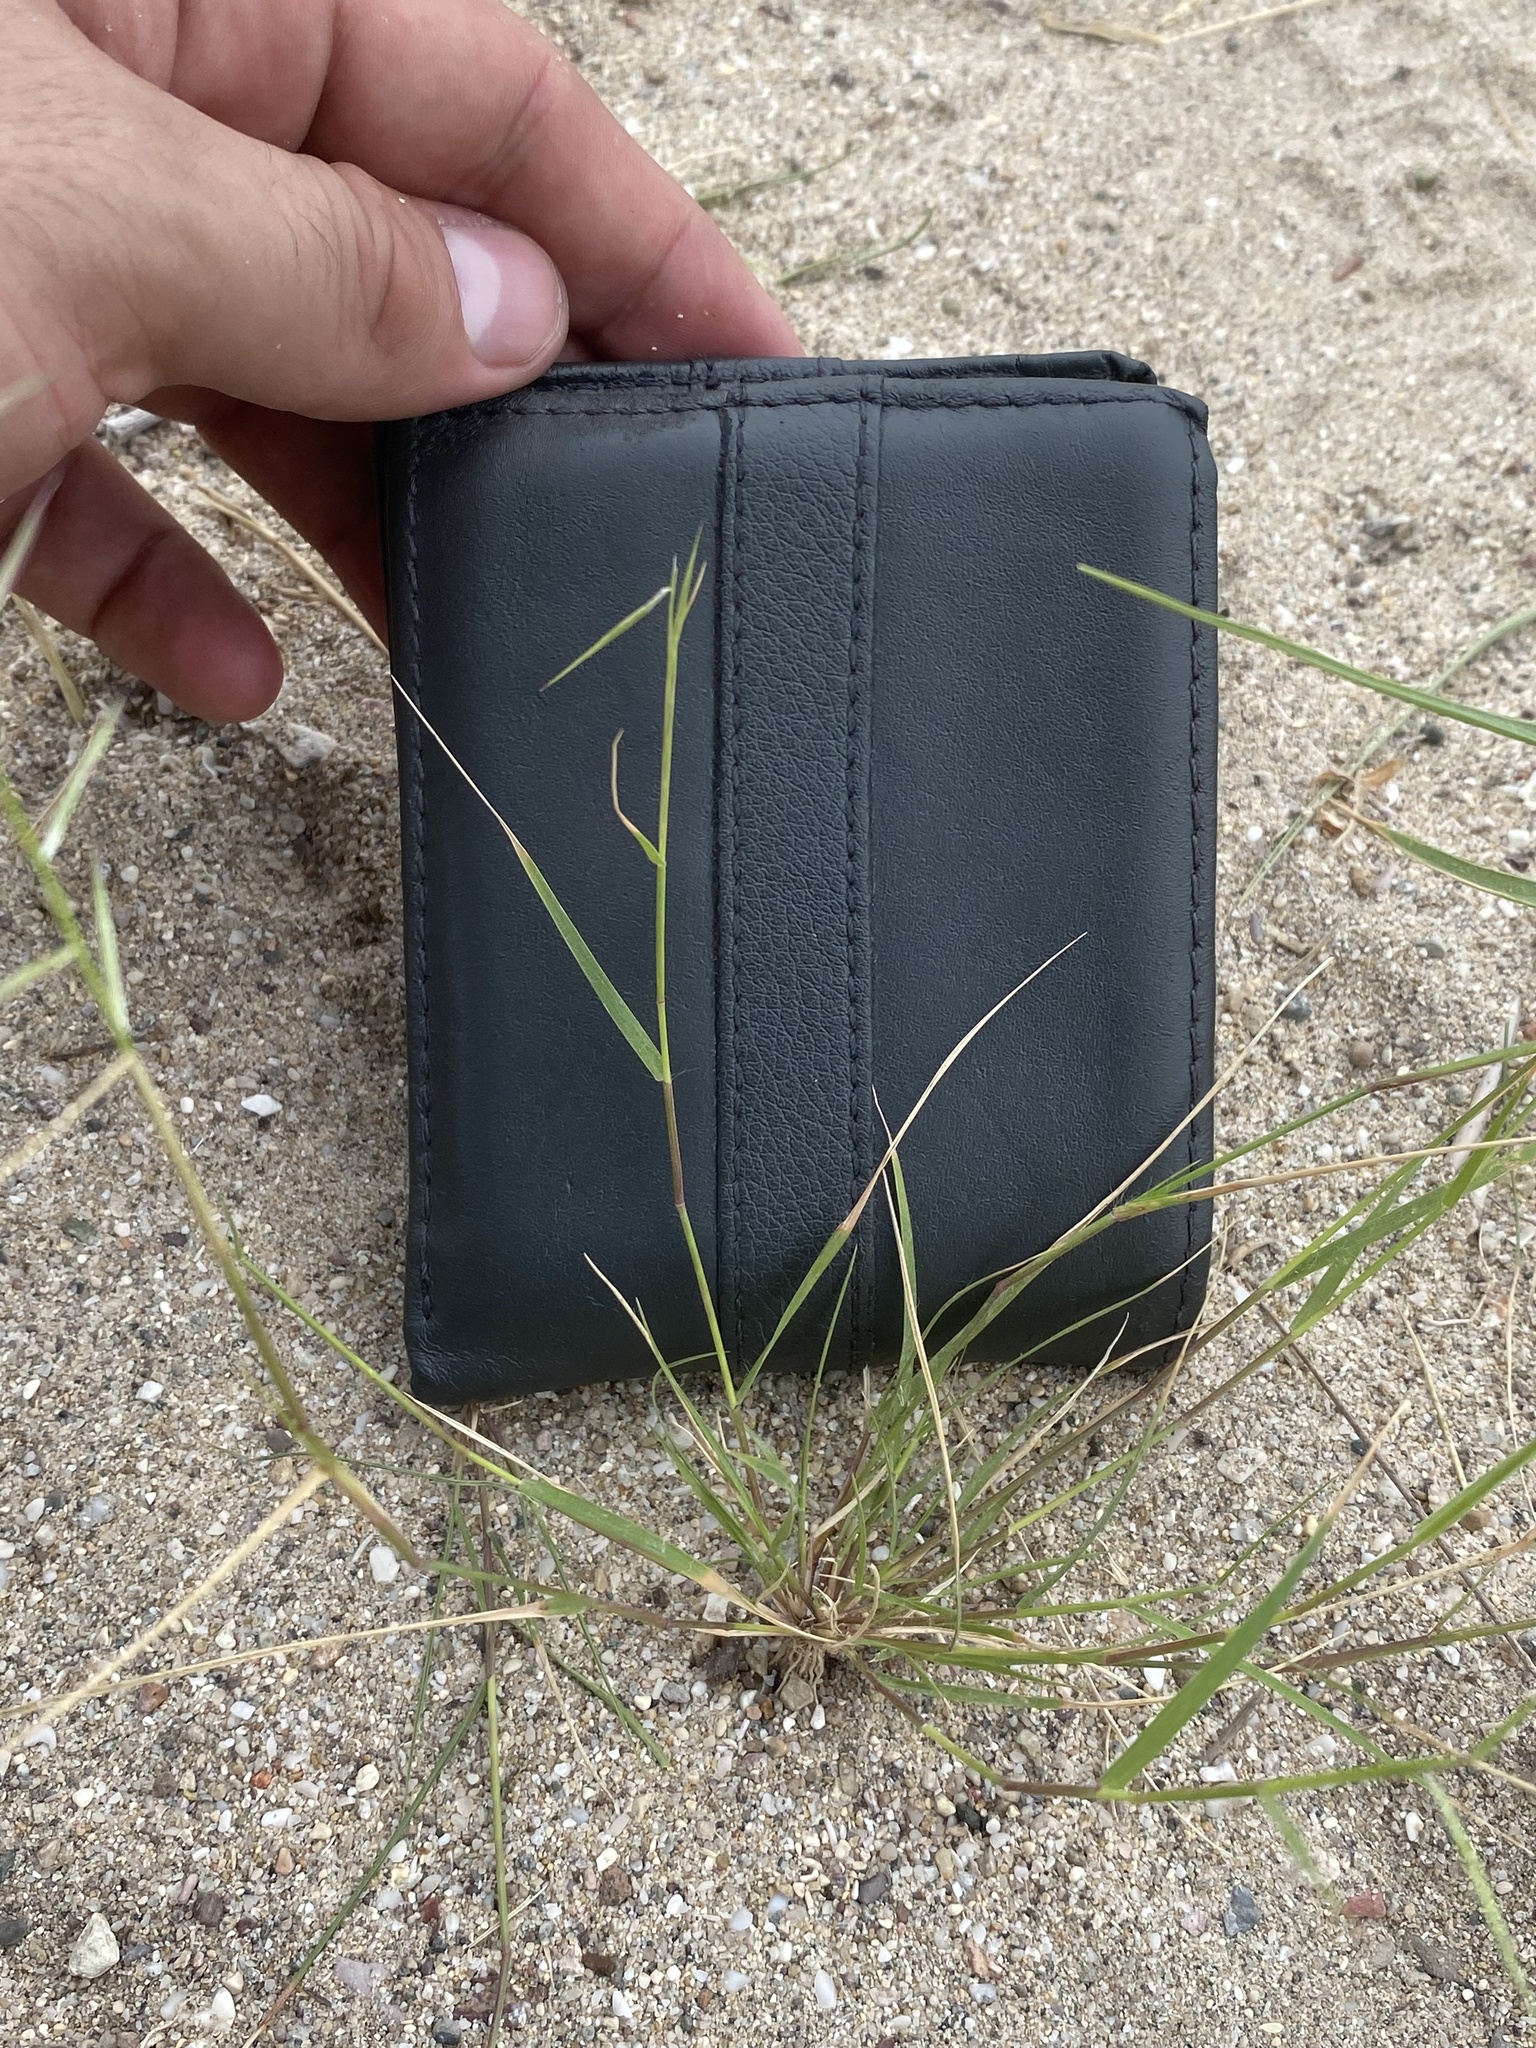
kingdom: Plantae
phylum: Tracheophyta
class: Liliopsida
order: Poales
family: Poaceae
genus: Bouteloua
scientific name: Bouteloua aristidoides
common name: Needle grama
